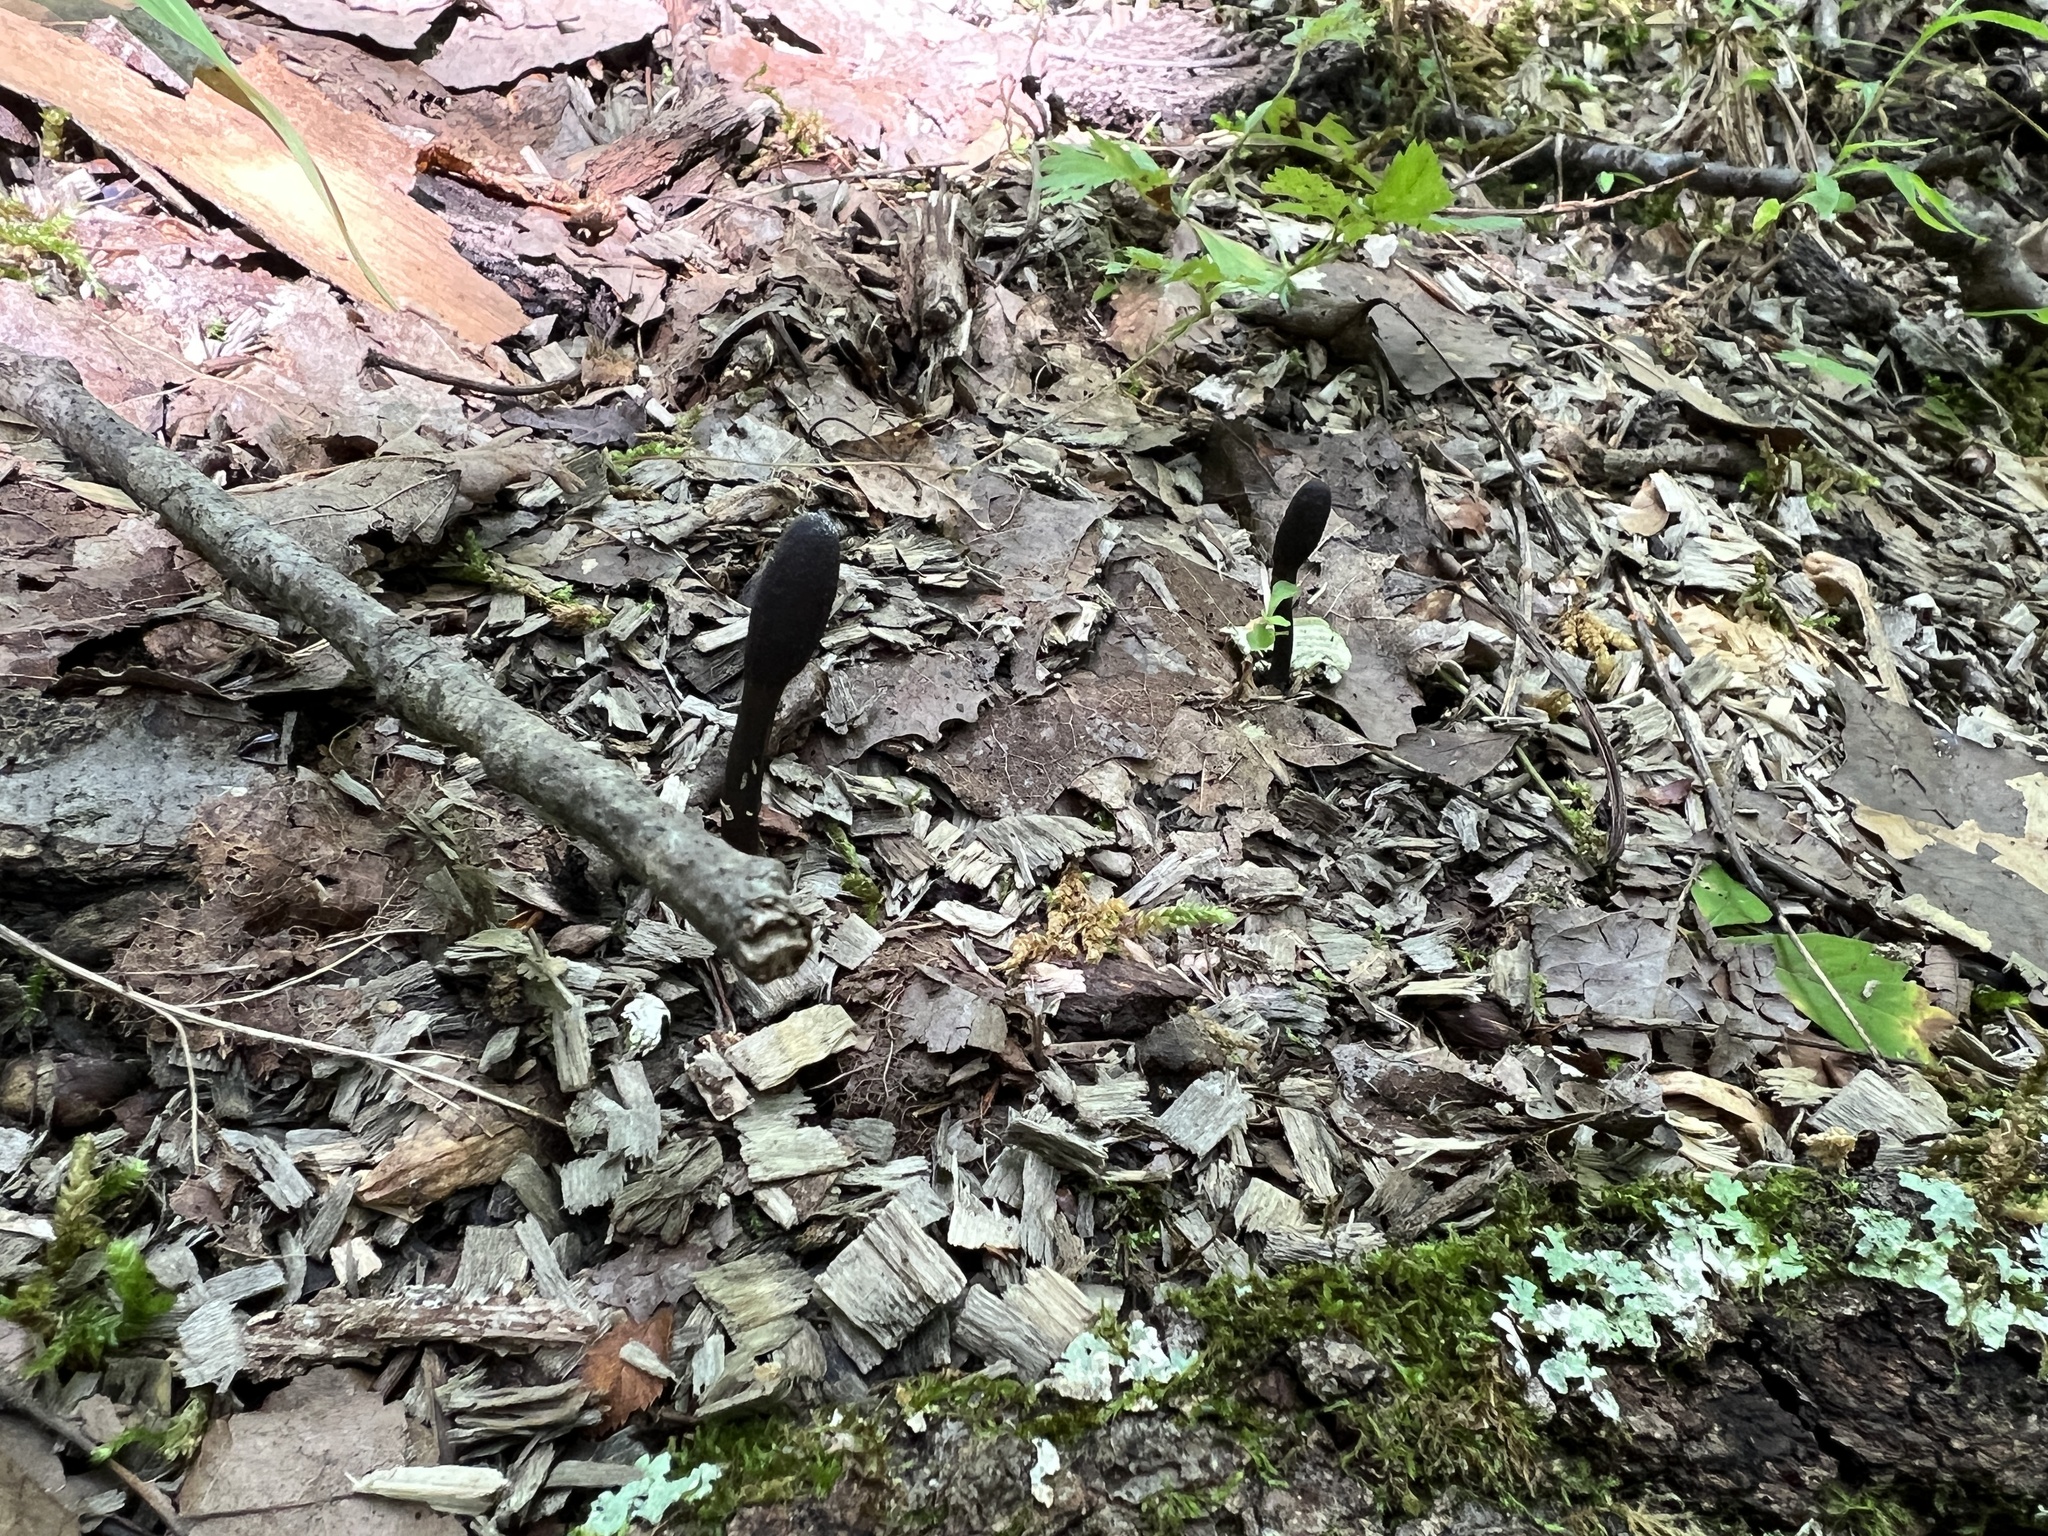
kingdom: Fungi
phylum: Ascomycota
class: Sordariomycetes
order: Hypocreales
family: Ophiocordycipitaceae
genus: Tolypocladium
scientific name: Tolypocladium ophioglossoides
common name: Snaketongue truffleclub
